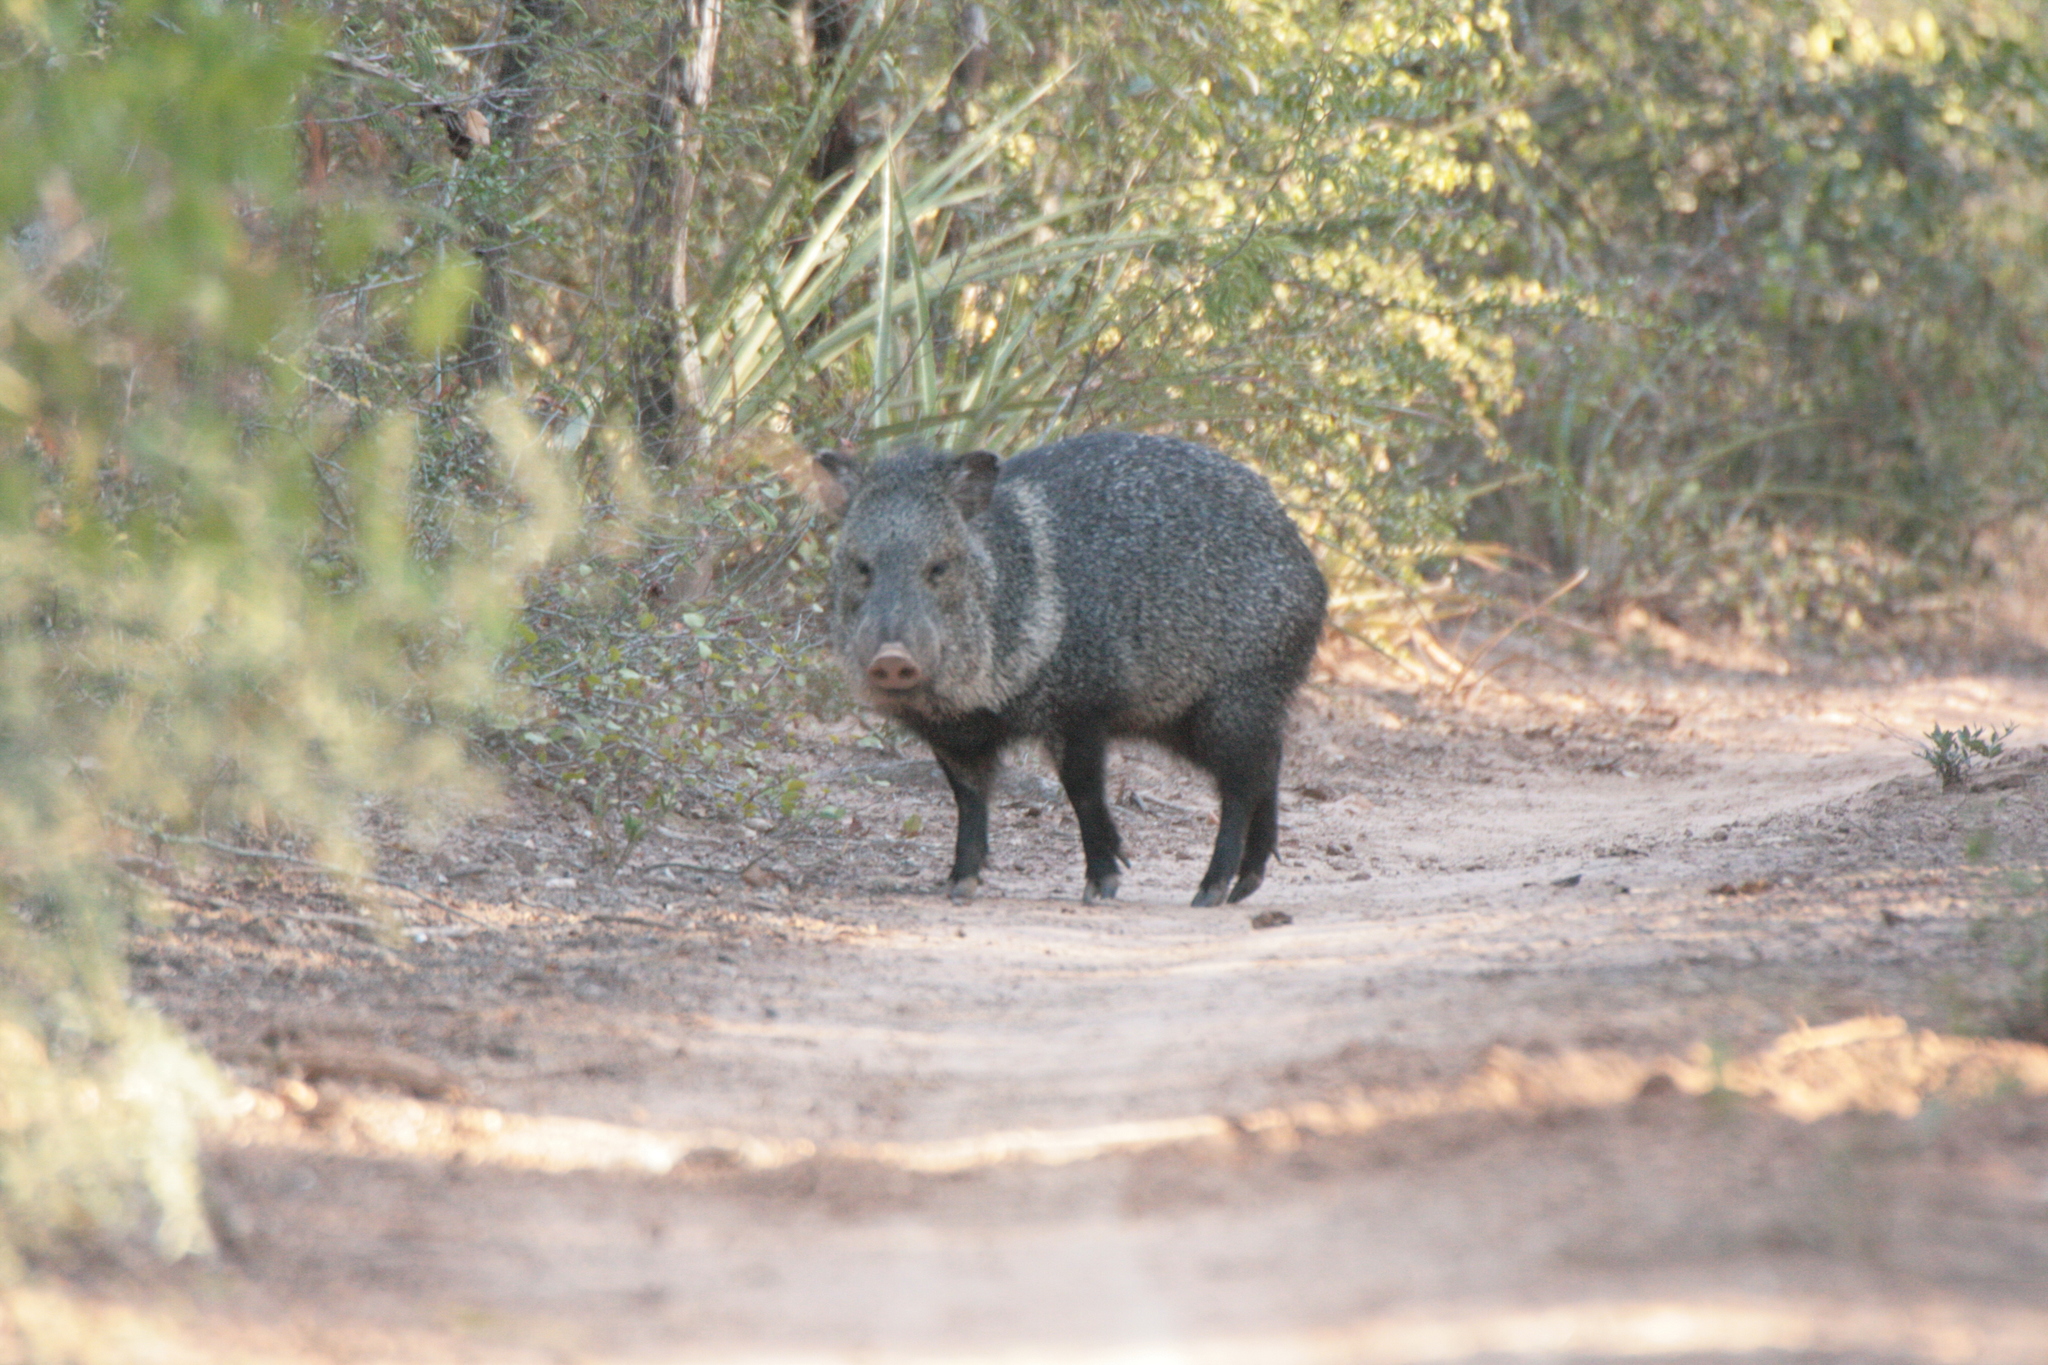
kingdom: Animalia
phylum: Chordata
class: Mammalia
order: Artiodactyla
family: Tayassuidae
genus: Pecari
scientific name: Pecari tajacu
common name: Collared peccary
